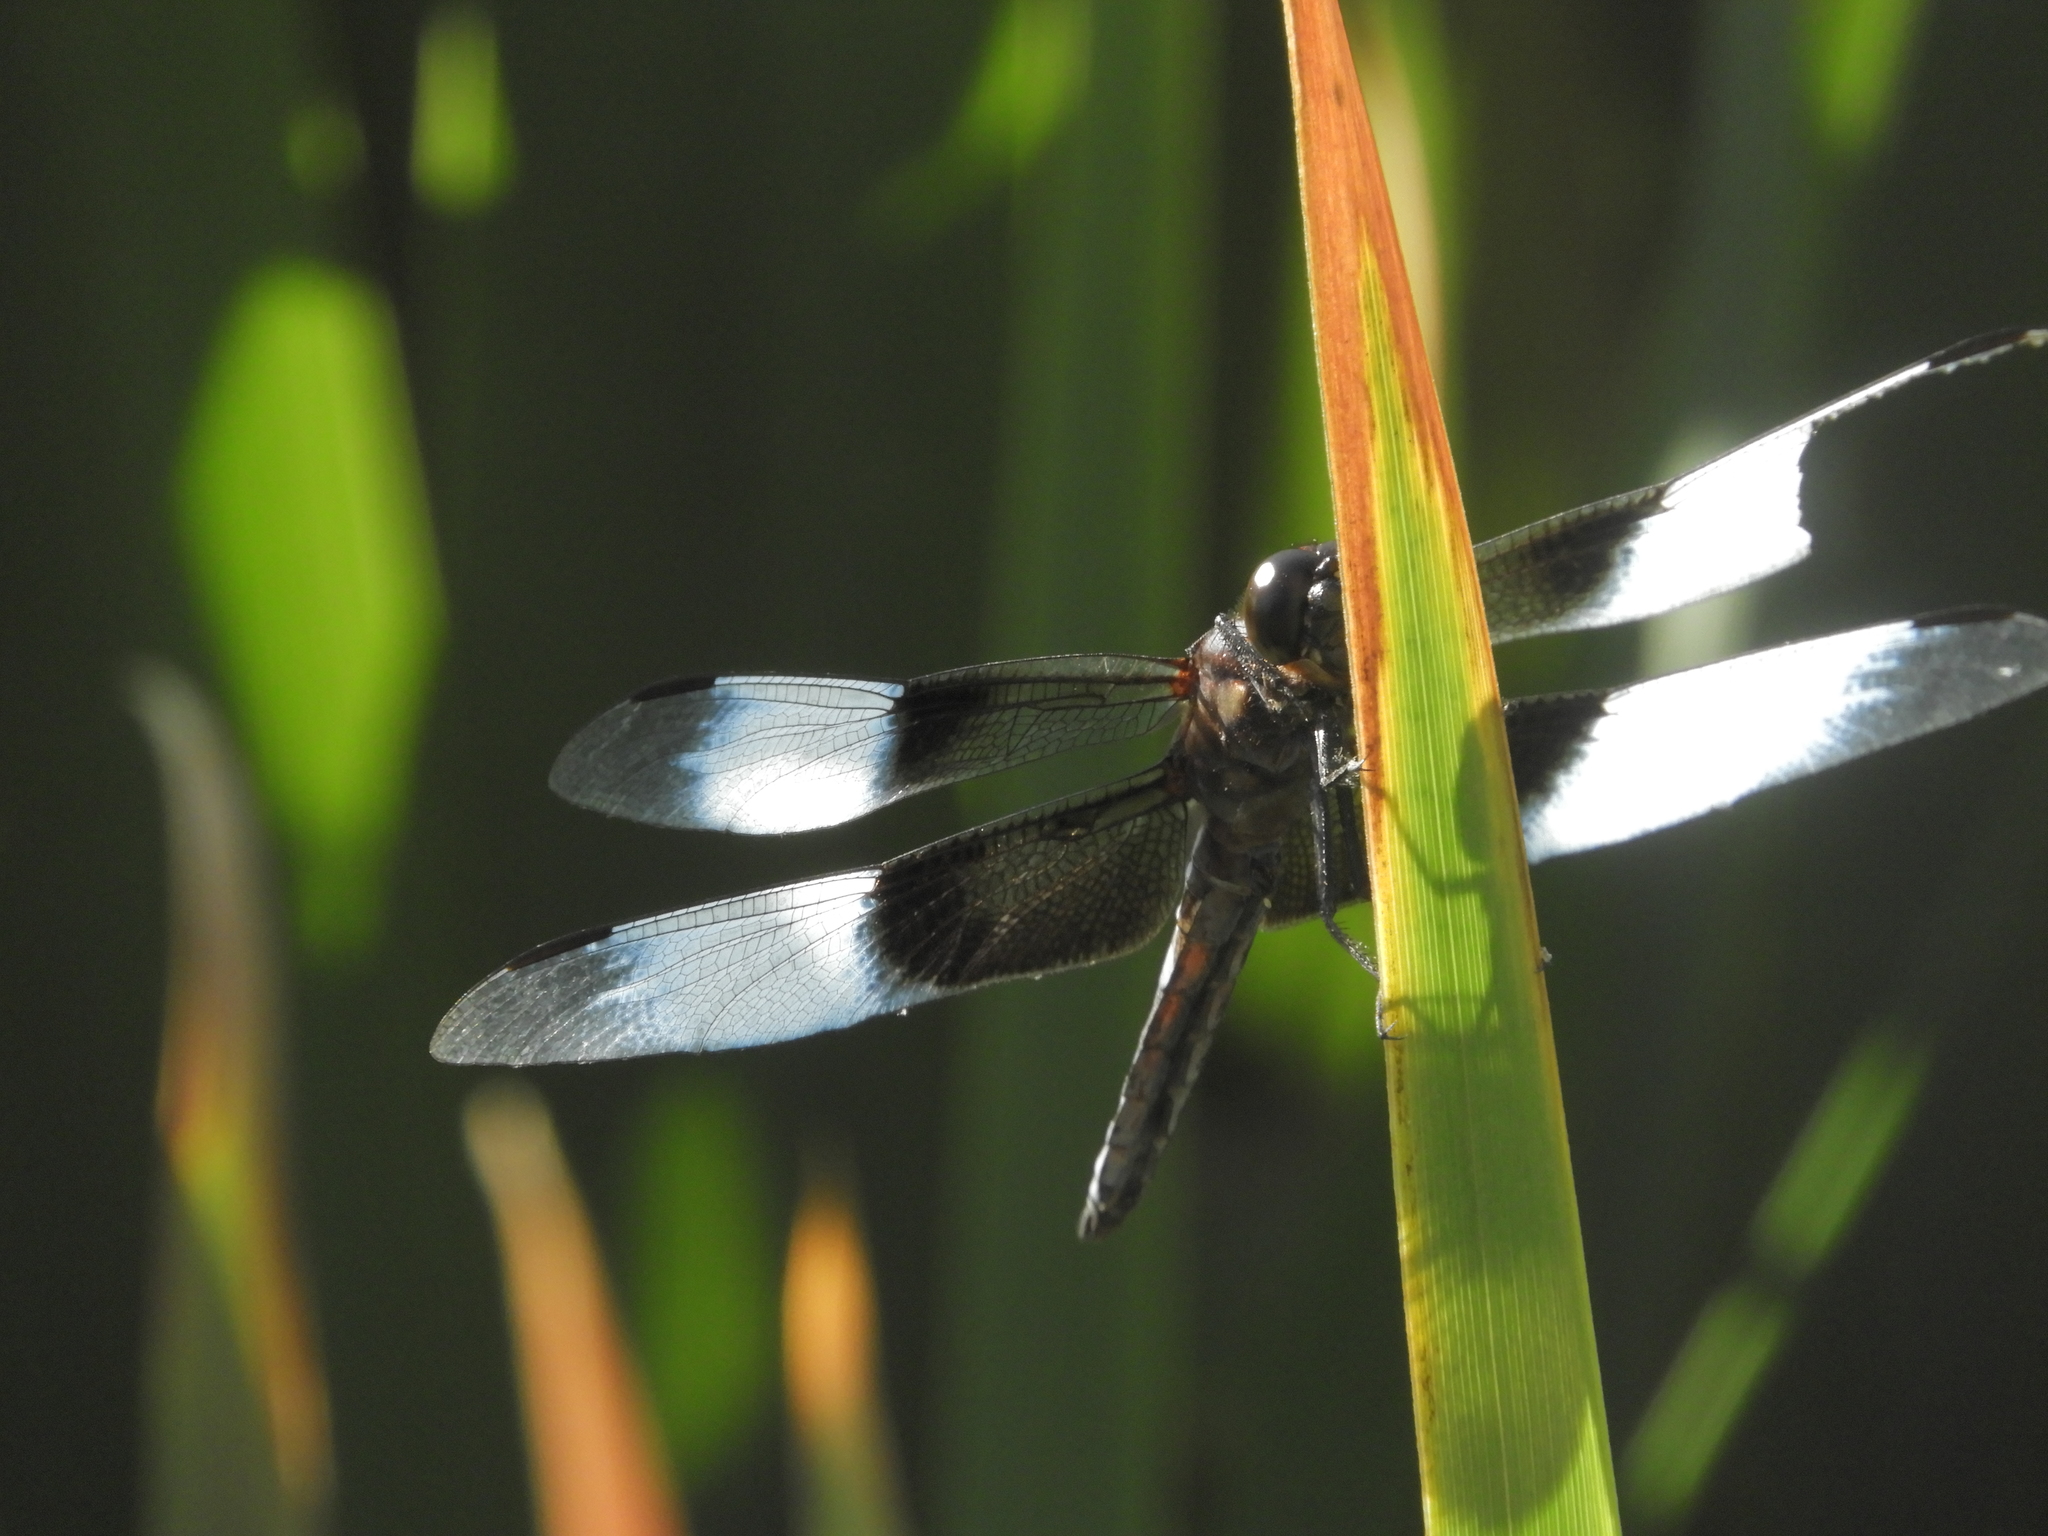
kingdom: Animalia
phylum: Arthropoda
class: Insecta
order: Odonata
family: Libellulidae
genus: Libellula
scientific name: Libellula luctuosa
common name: Widow skimmer
